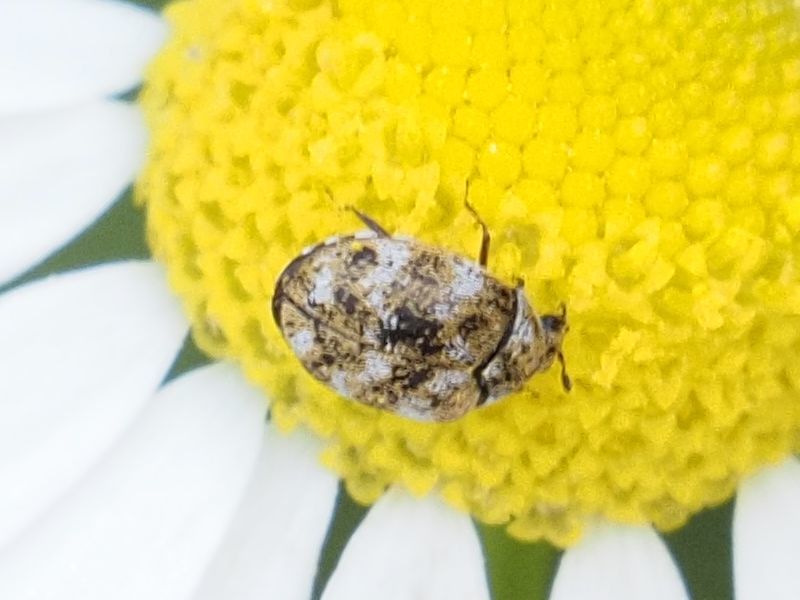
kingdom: Animalia
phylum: Arthropoda
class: Insecta
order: Coleoptera
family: Dermestidae
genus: Anthrenus
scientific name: Anthrenus verbasci
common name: Varied carpet beetle
